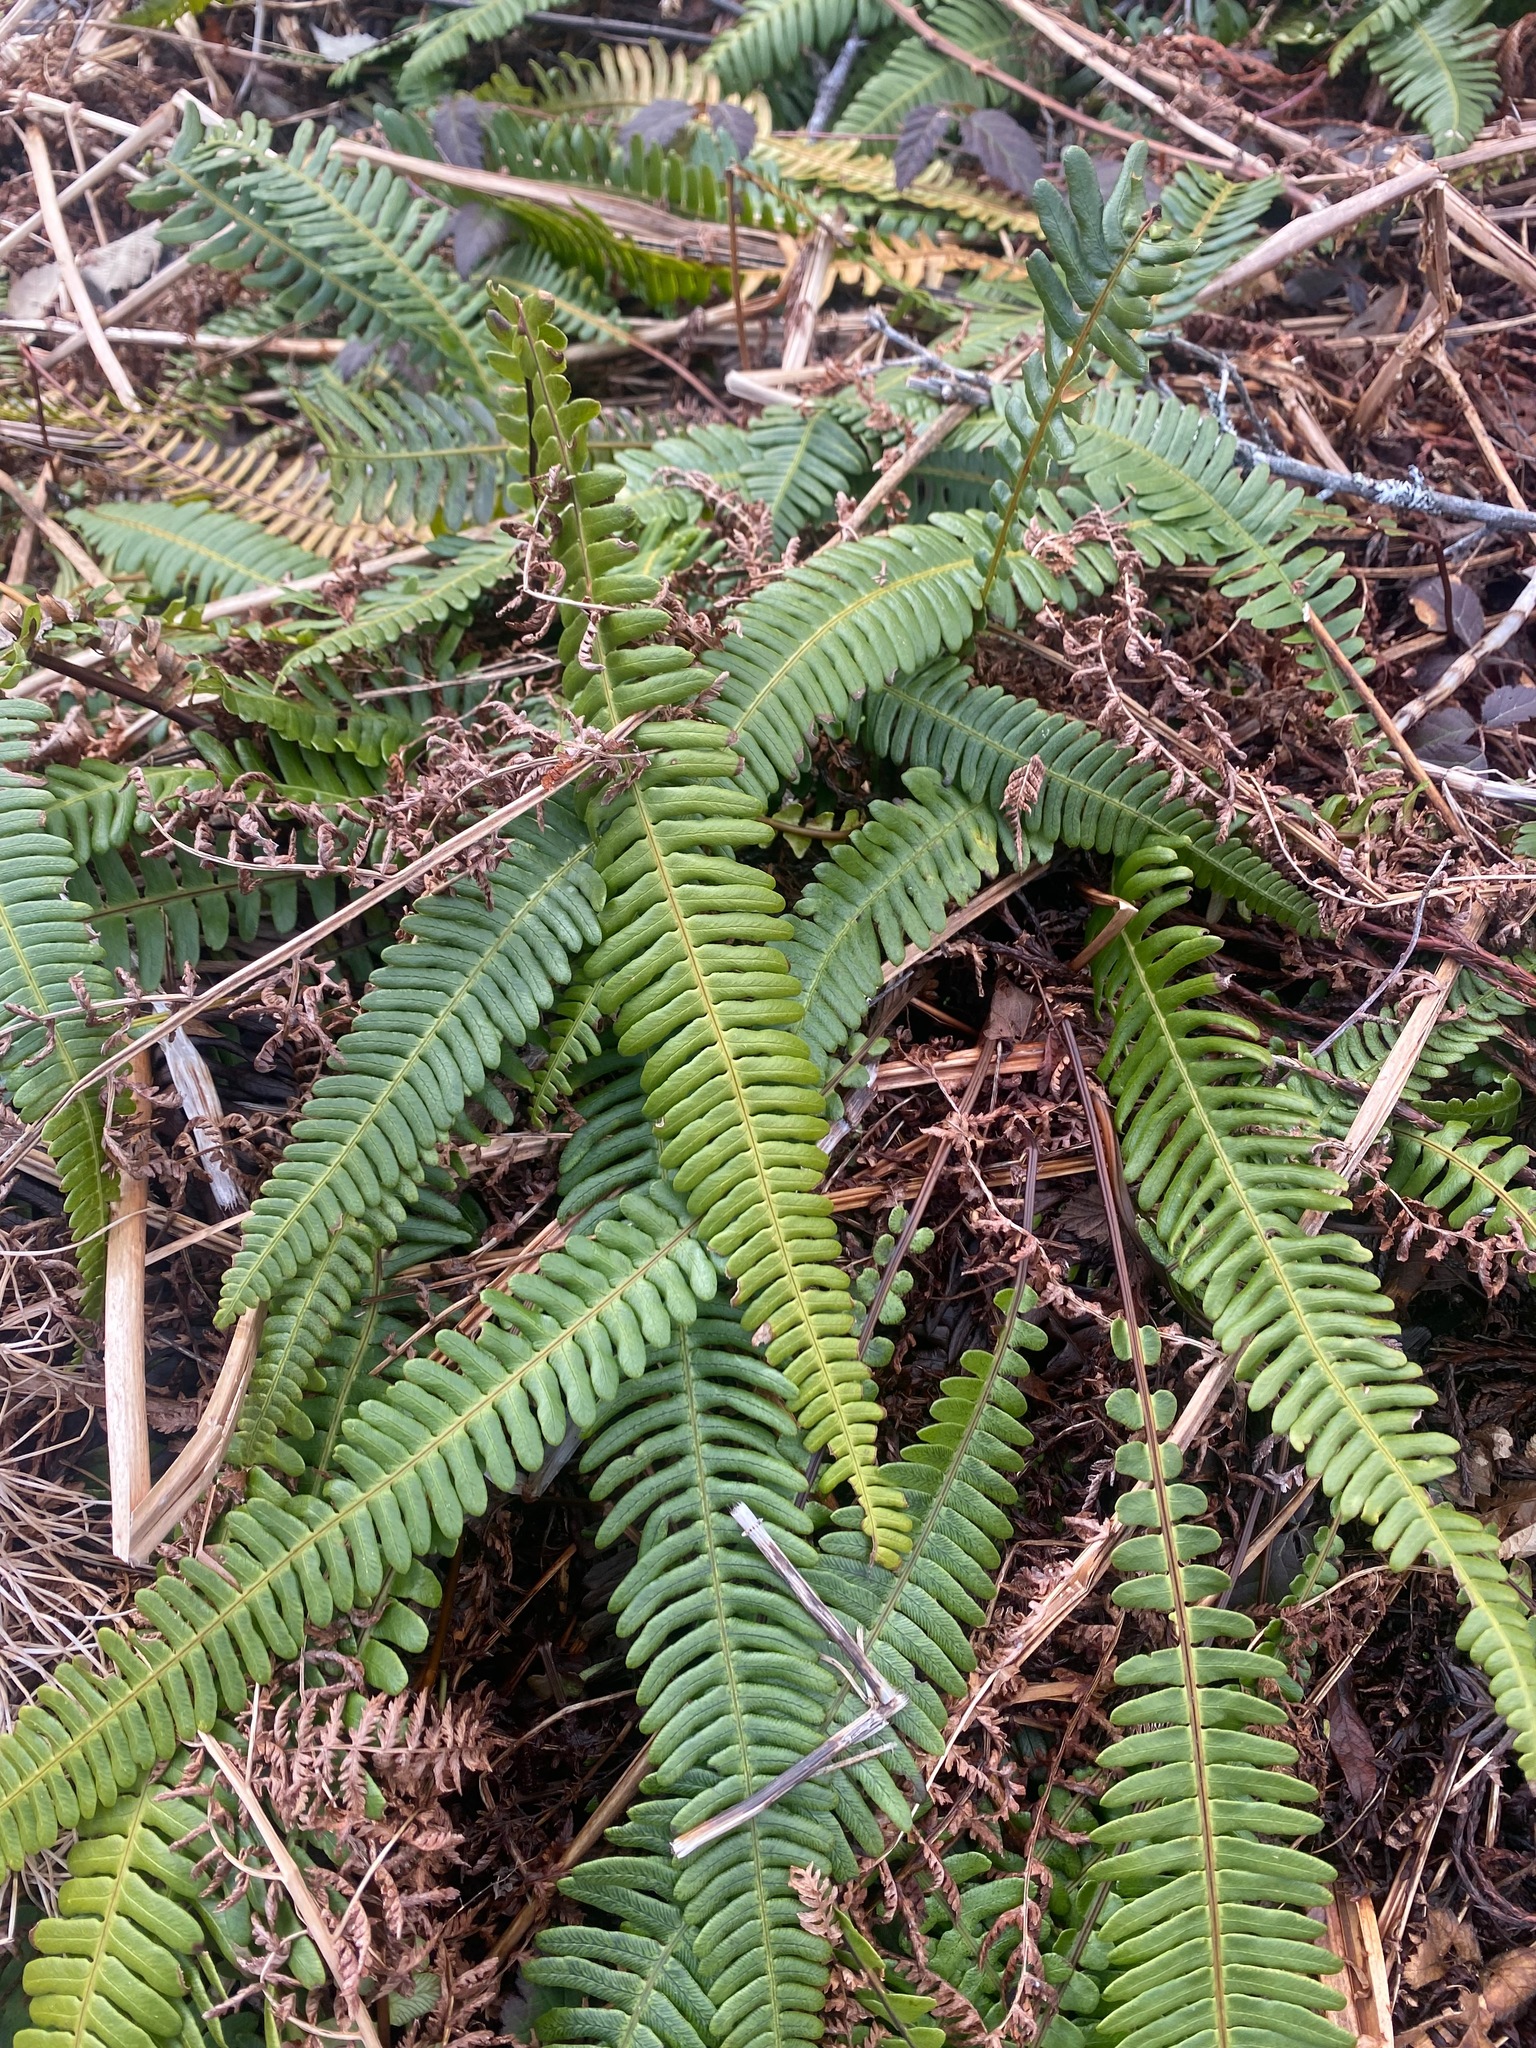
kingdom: Plantae
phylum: Tracheophyta
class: Polypodiopsida
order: Polypodiales
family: Blechnaceae
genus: Struthiopteris
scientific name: Struthiopteris spicant
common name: Deer fern
